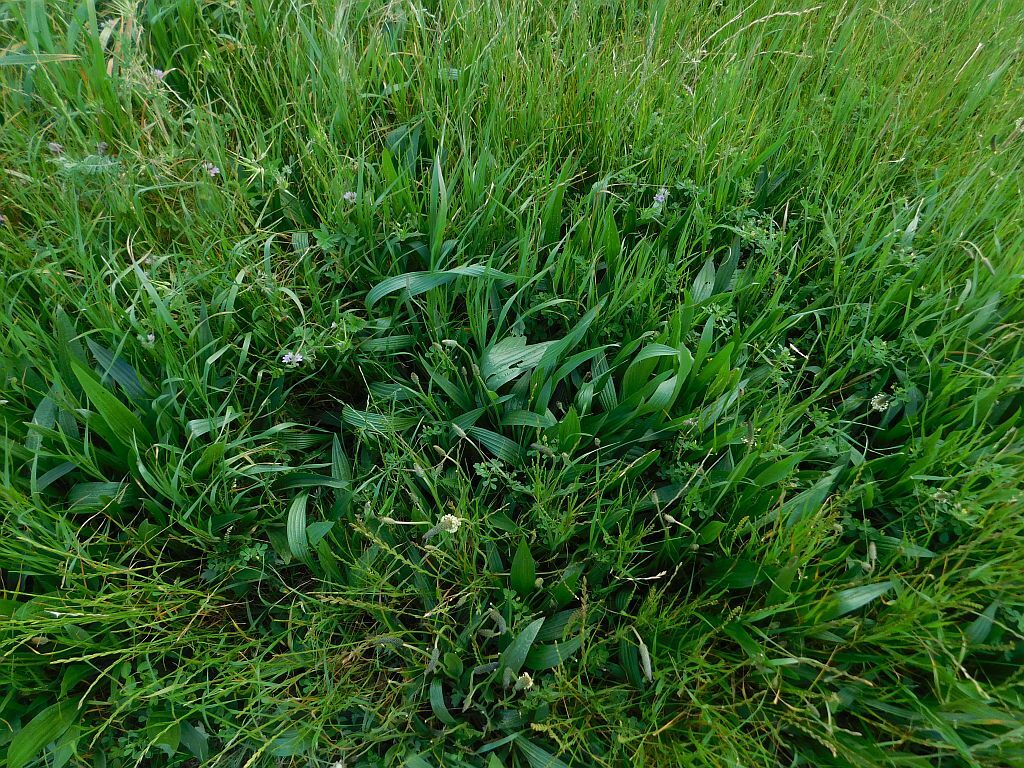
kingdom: Plantae
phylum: Tracheophyta
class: Magnoliopsida
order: Lamiales
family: Plantaginaceae
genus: Plantago
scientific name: Plantago lanceolata
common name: Ribwort plantain
